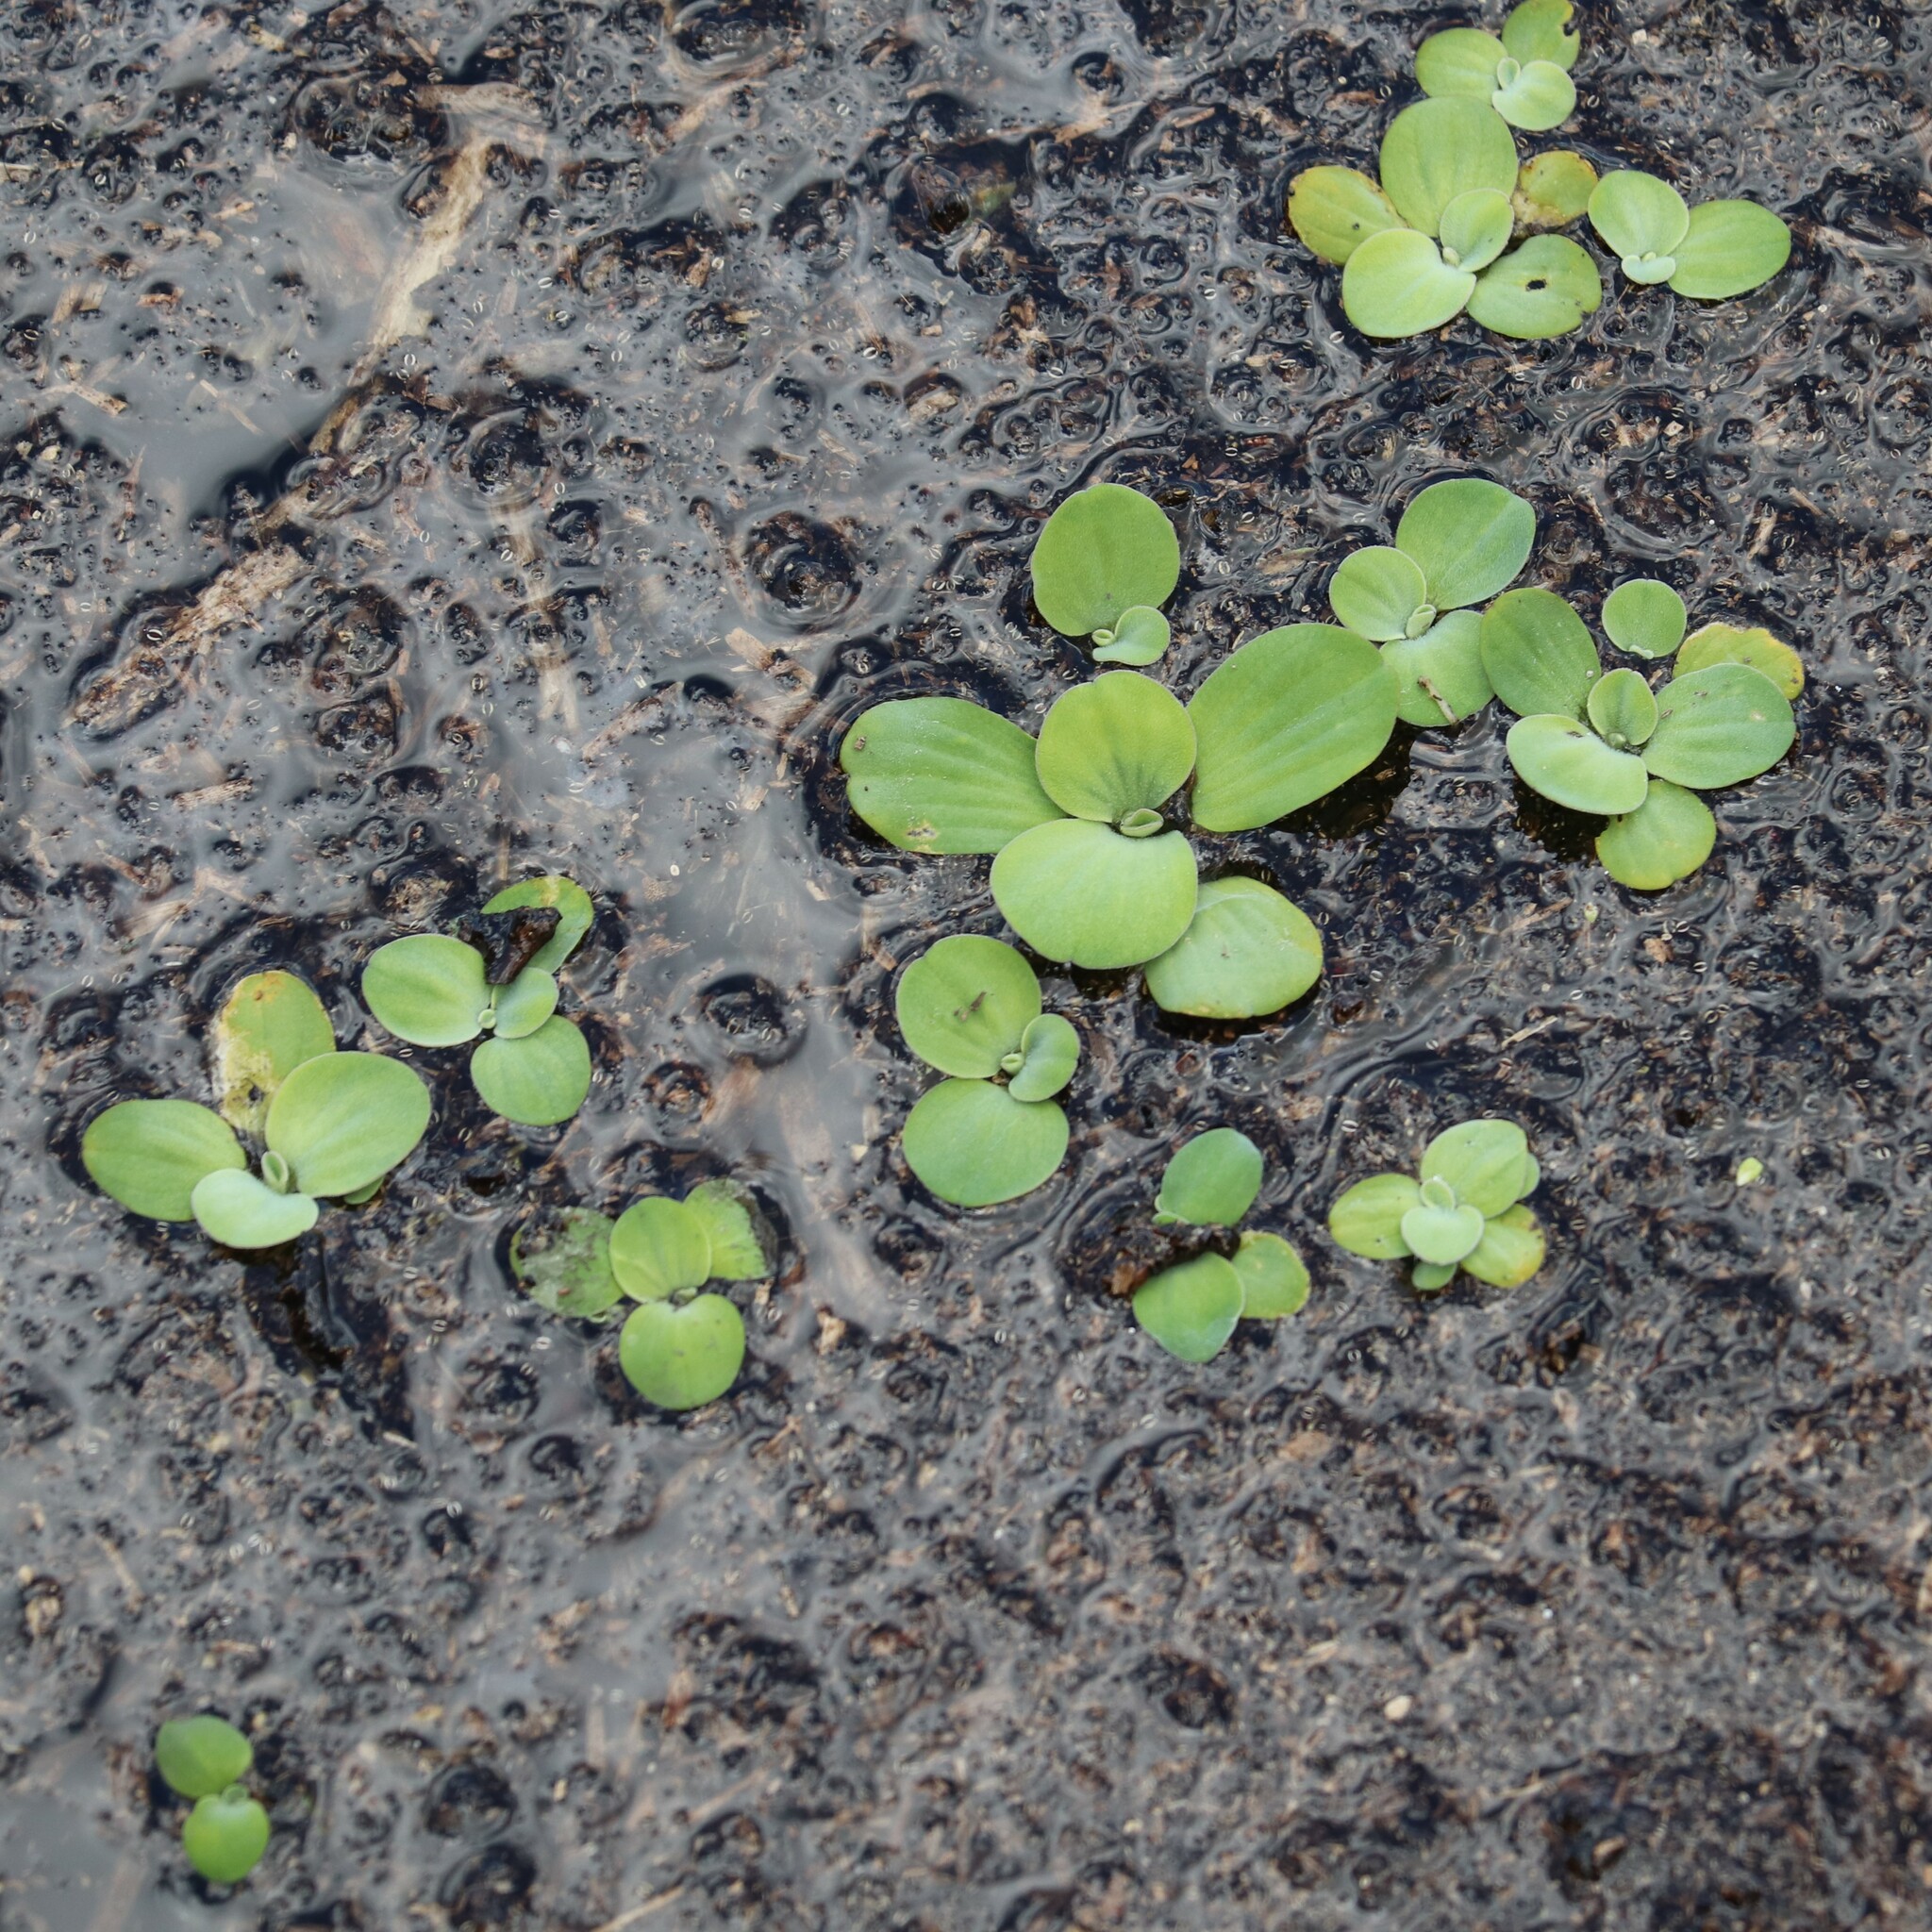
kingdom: Plantae
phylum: Tracheophyta
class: Liliopsida
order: Alismatales
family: Araceae
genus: Pistia
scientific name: Pistia stratiotes
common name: Water lettuce
